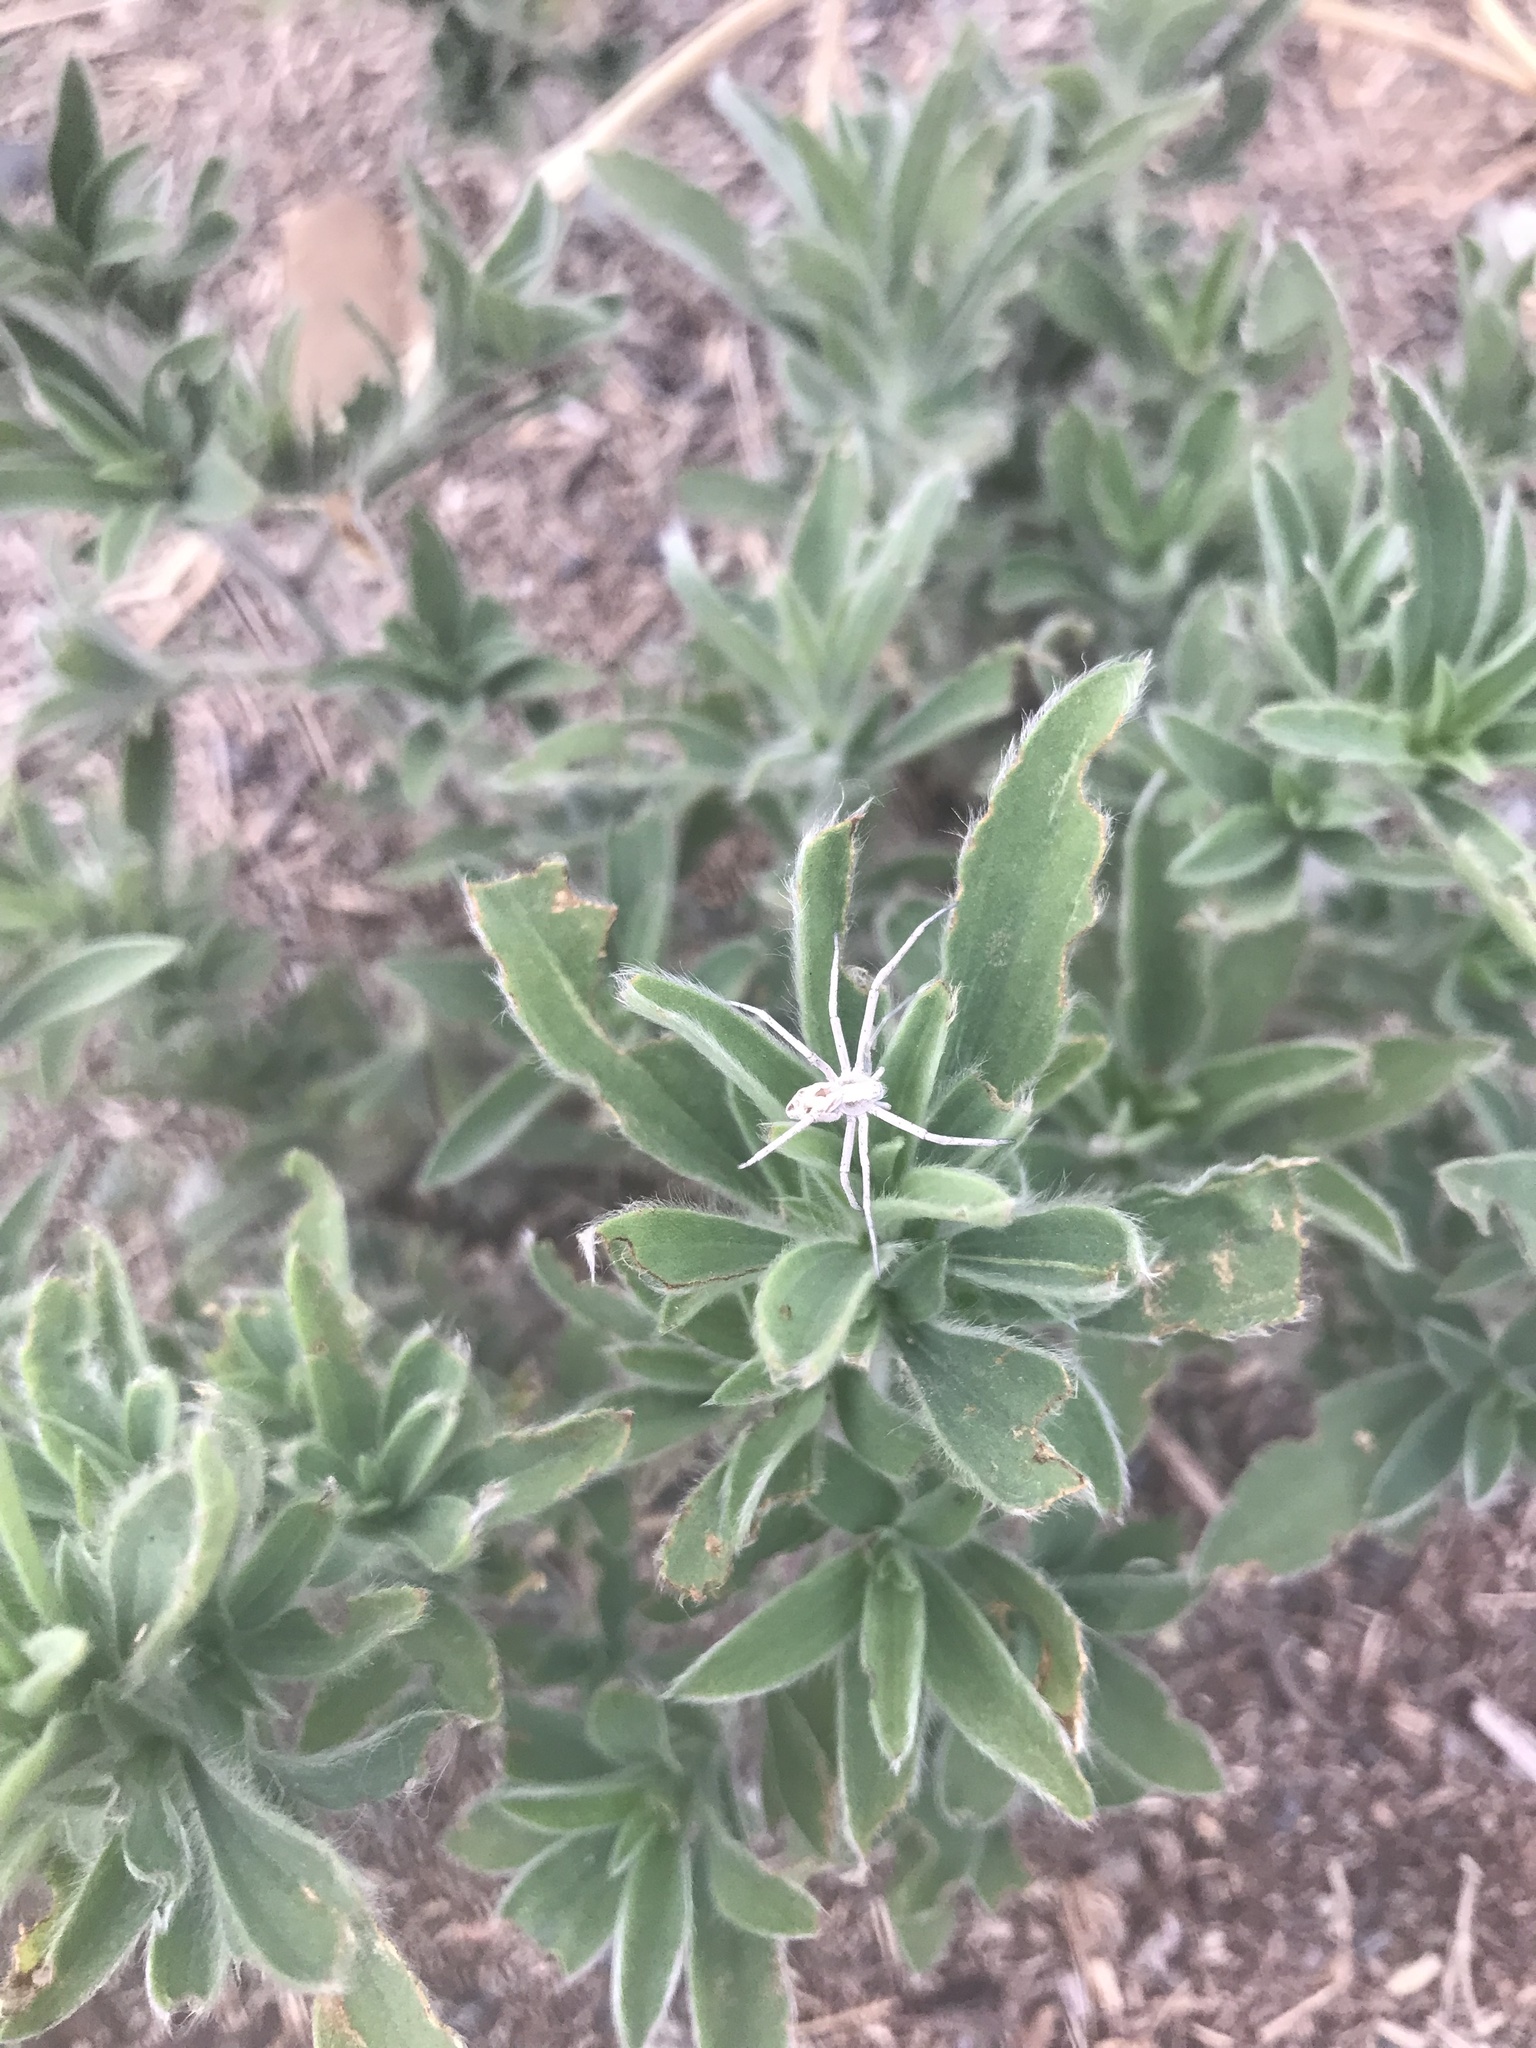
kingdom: Animalia
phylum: Arthropoda
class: Arachnida
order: Araneae
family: Philodromidae
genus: Rhysodromus
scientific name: Rhysodromus histrio
